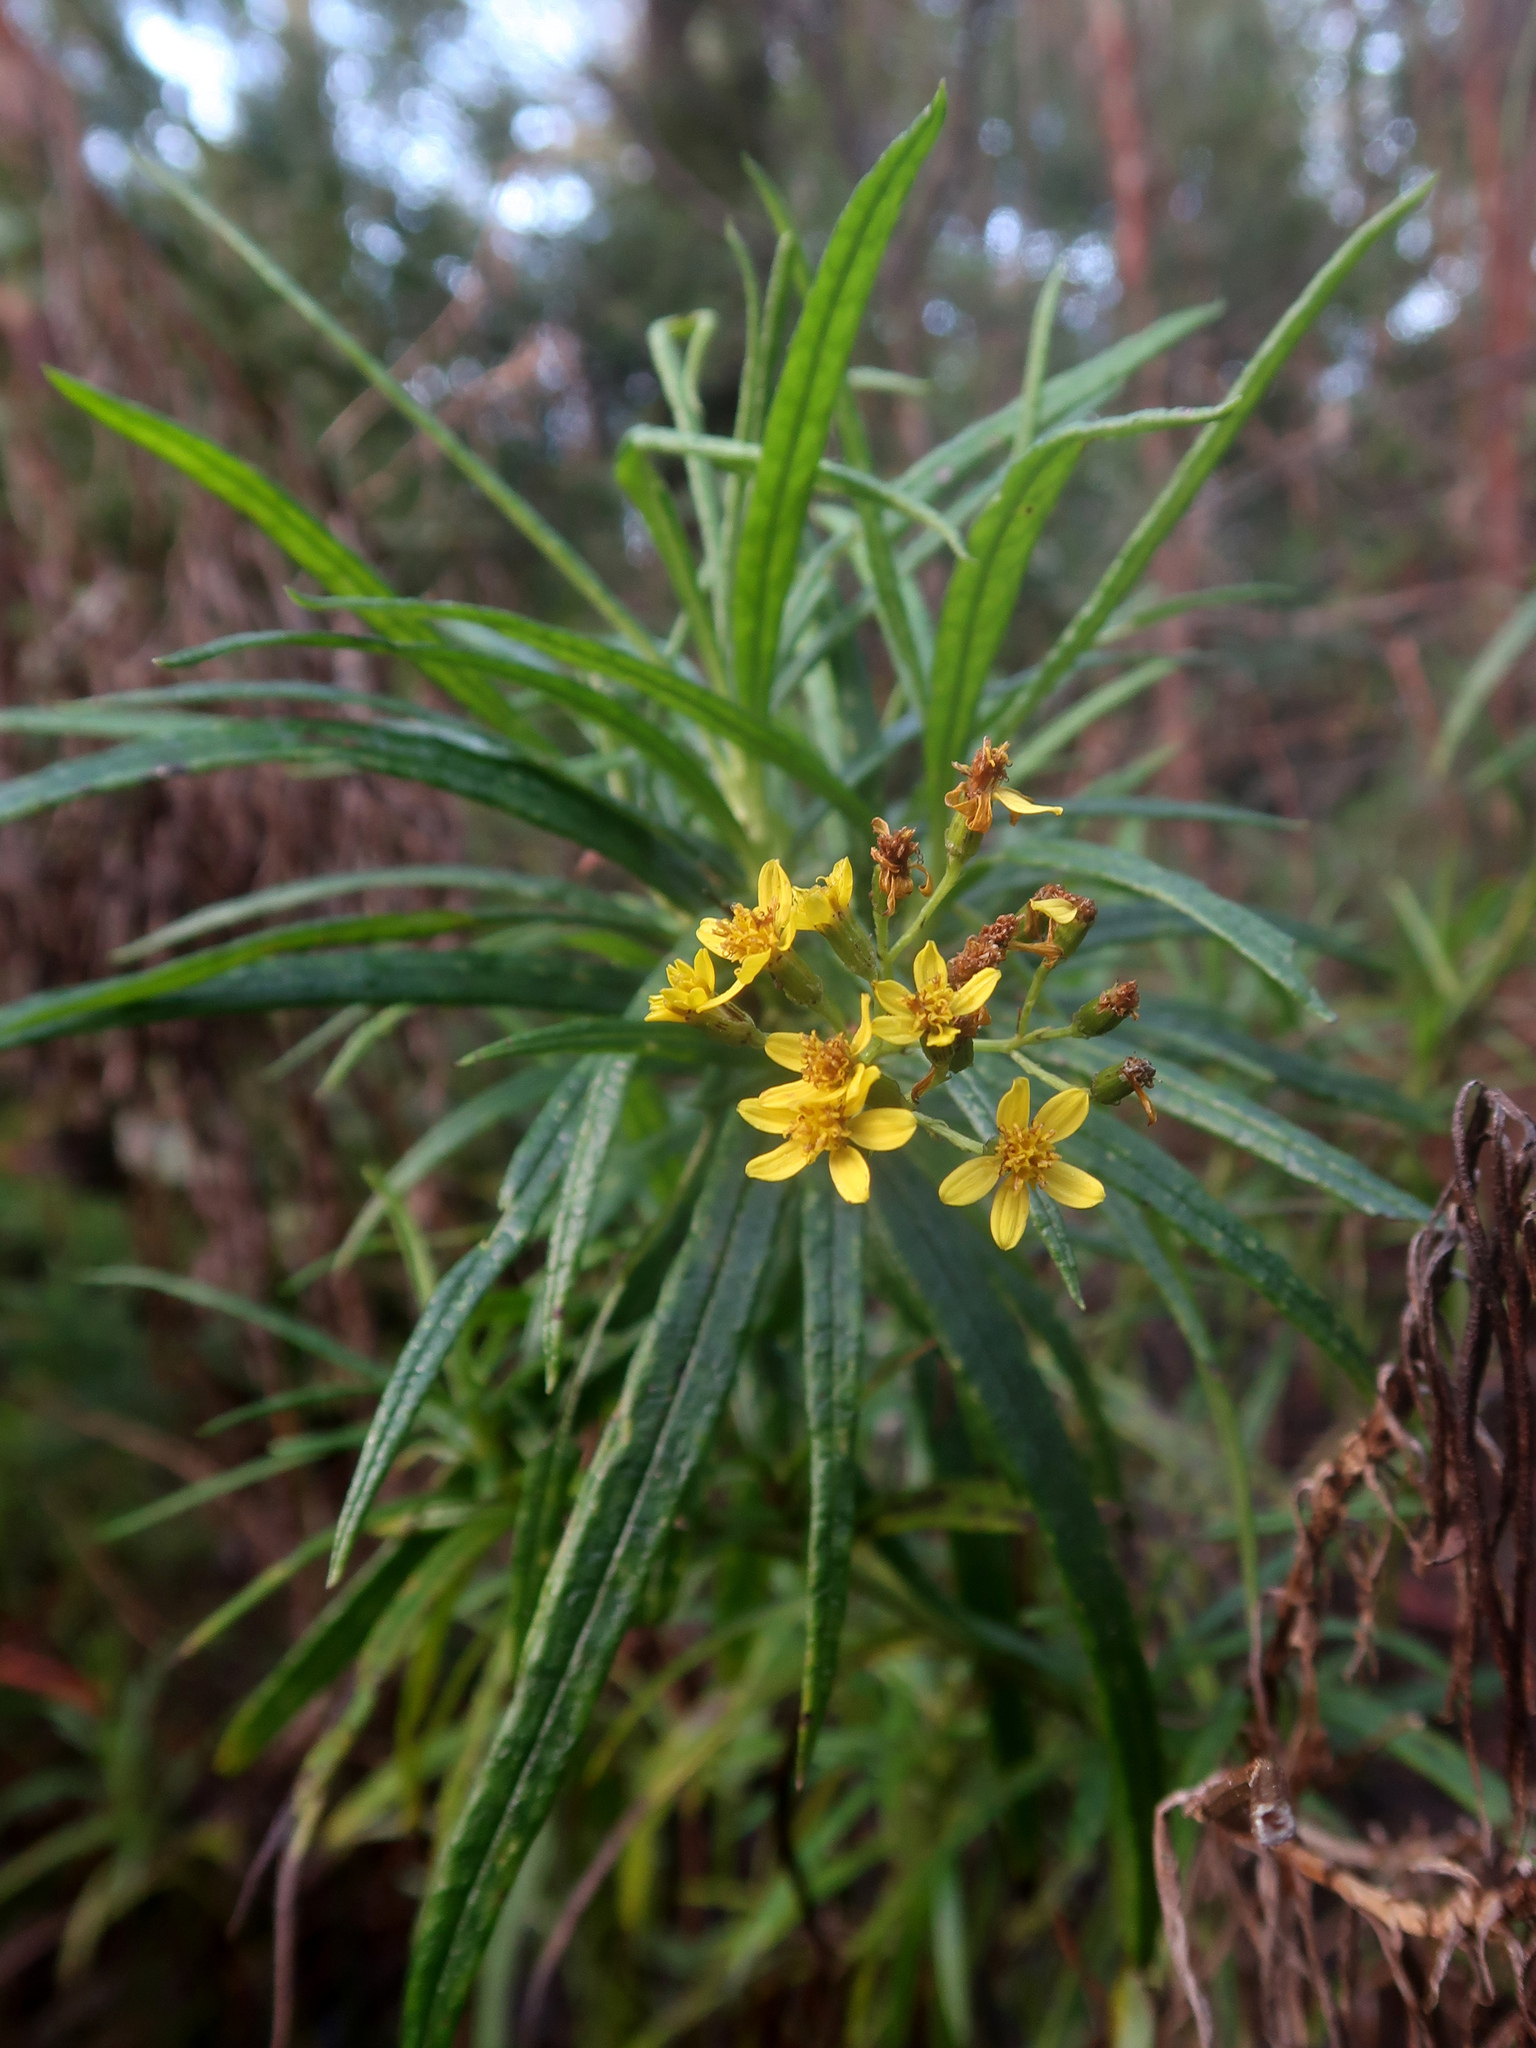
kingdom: Plantae
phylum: Tracheophyta
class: Magnoliopsida
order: Asterales
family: Asteraceae
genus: Senecio
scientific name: Senecio linearifolius
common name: Fireweed groundsel
